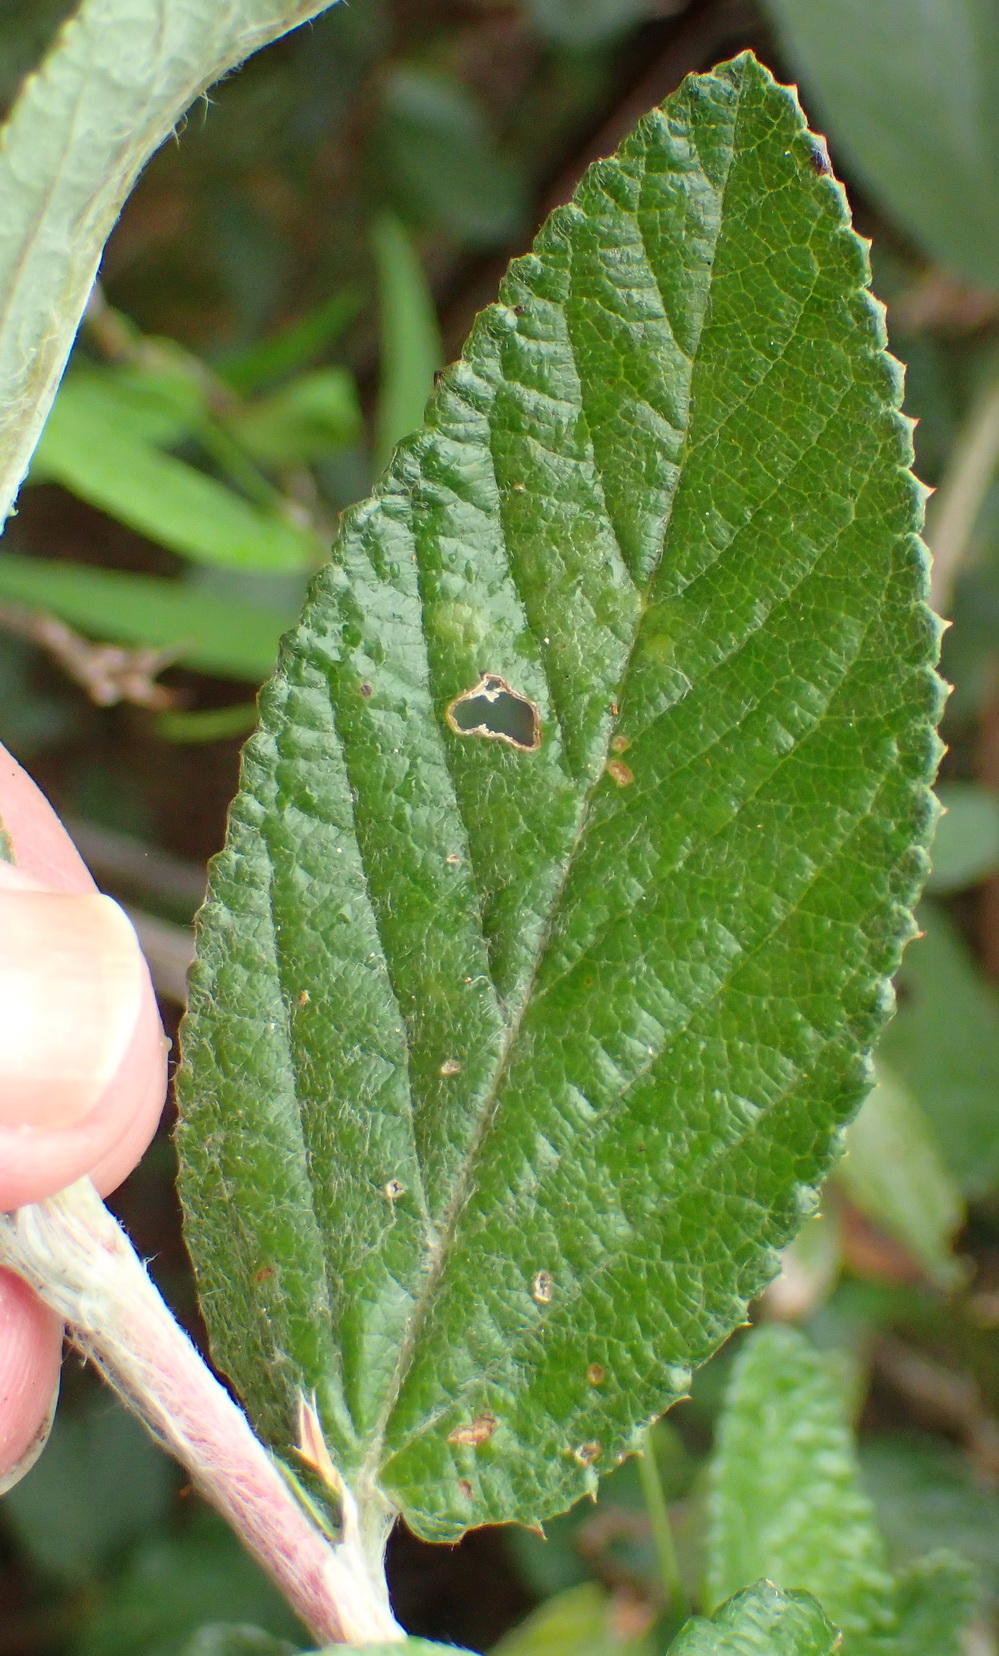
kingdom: Plantae
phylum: Tracheophyta
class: Magnoliopsida
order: Rosales
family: Rosaceae
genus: Cliffortia
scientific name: Cliffortia odorata
